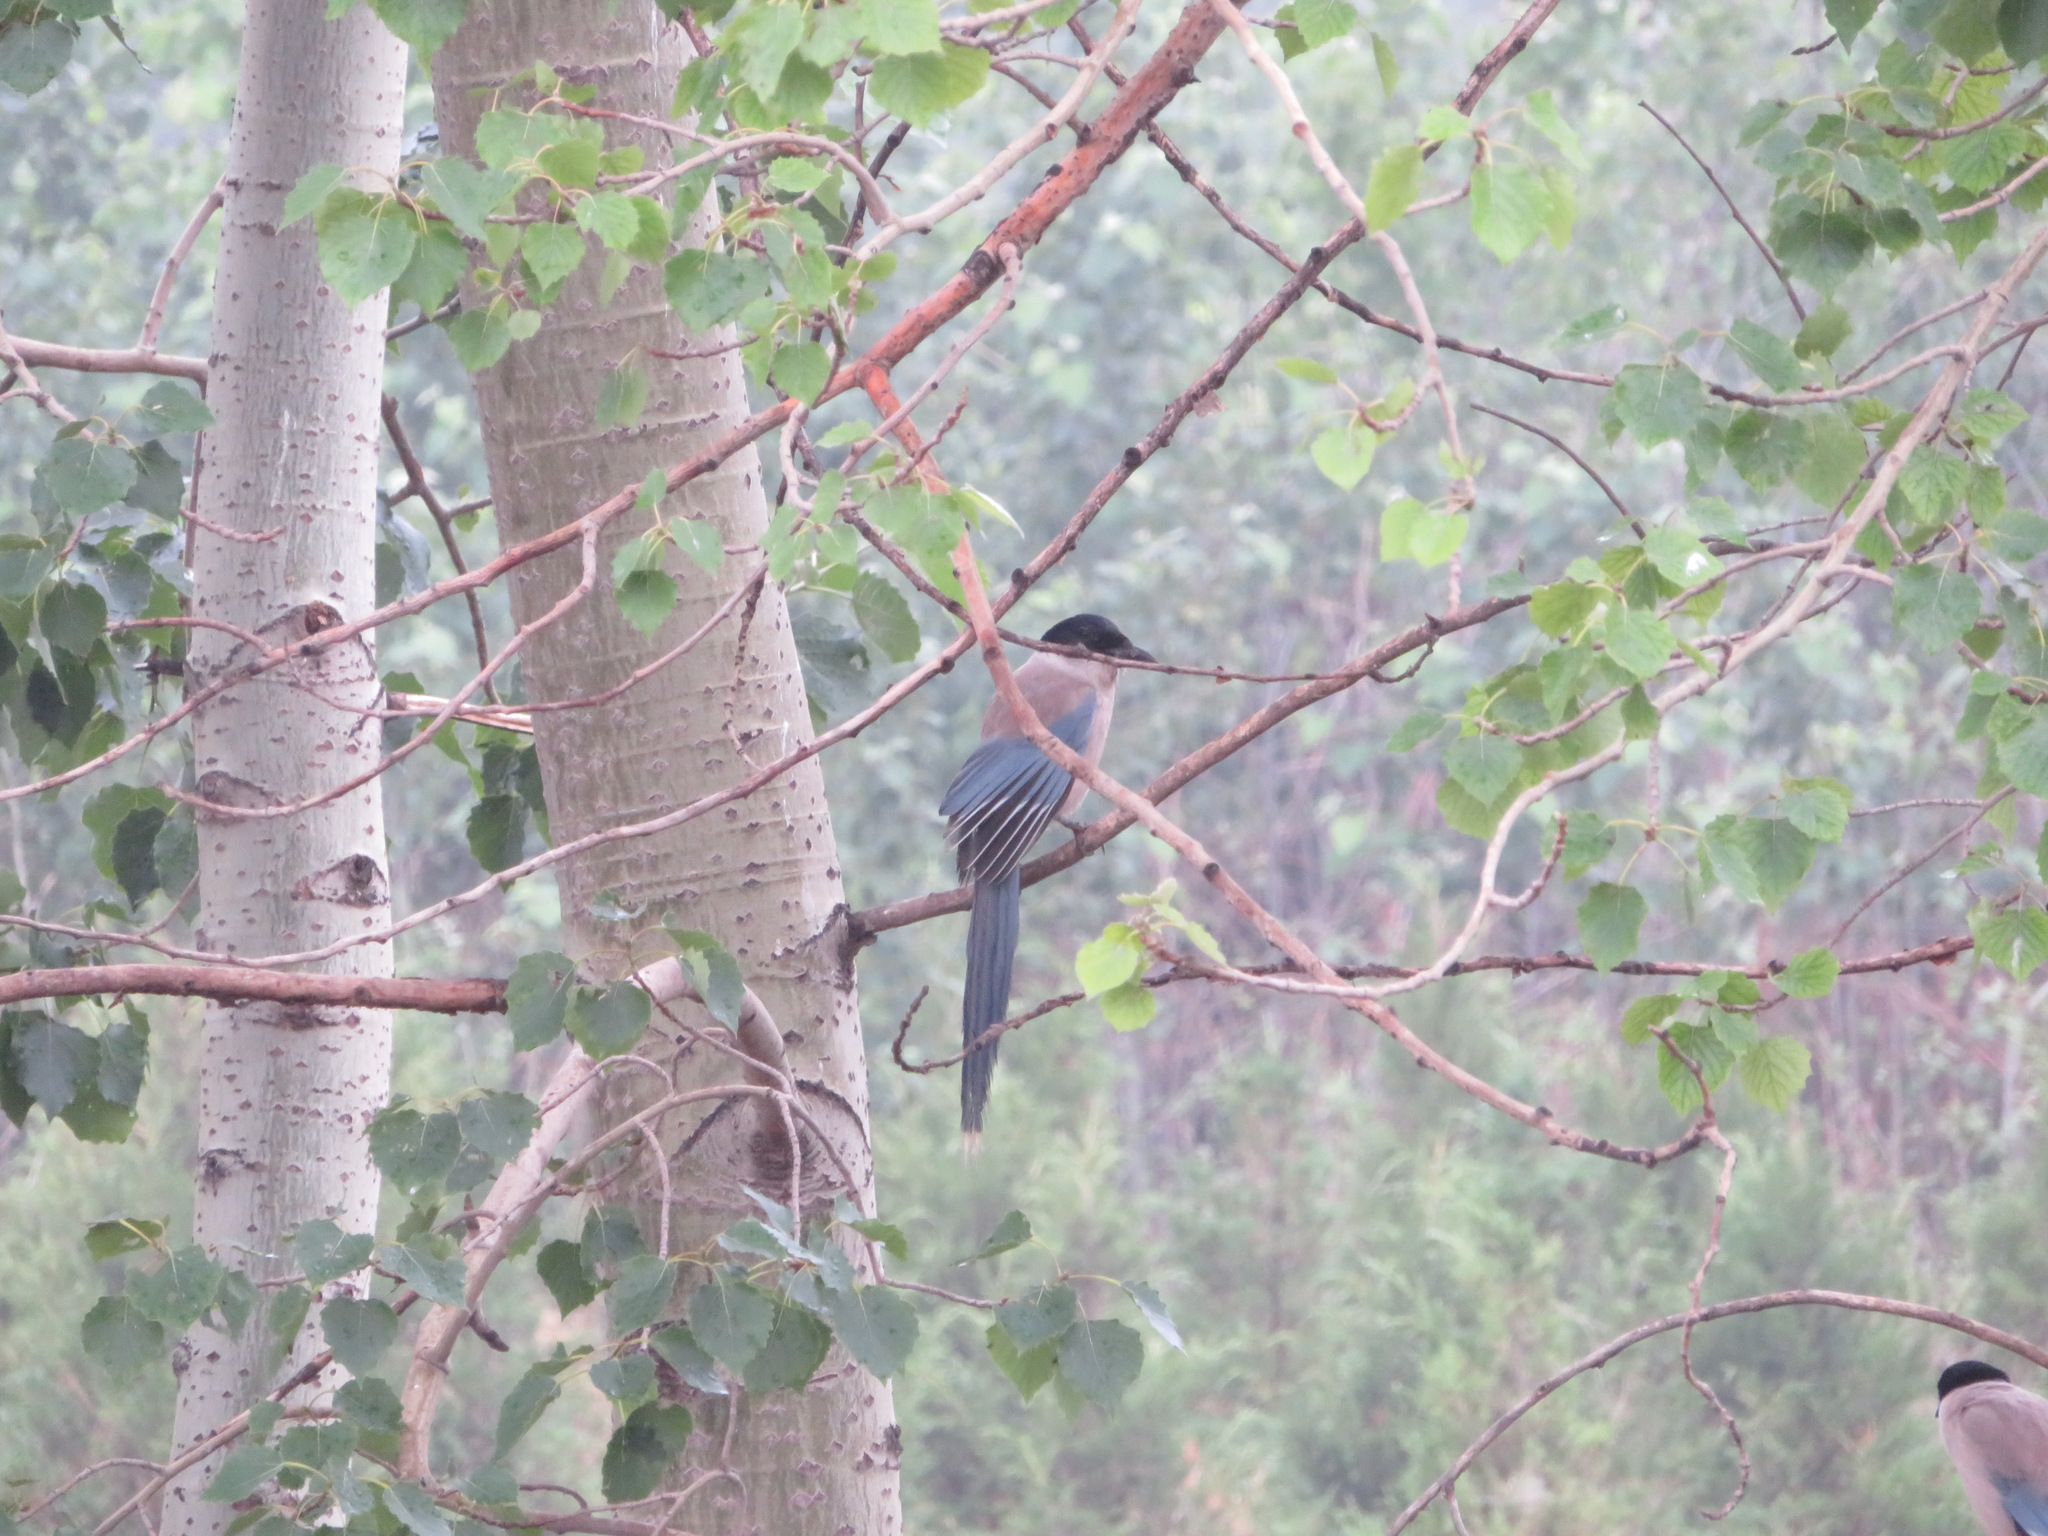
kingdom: Animalia
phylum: Chordata
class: Aves
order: Passeriformes
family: Corvidae
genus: Cyanopica
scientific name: Cyanopica cyanus
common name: Azure-winged magpie
